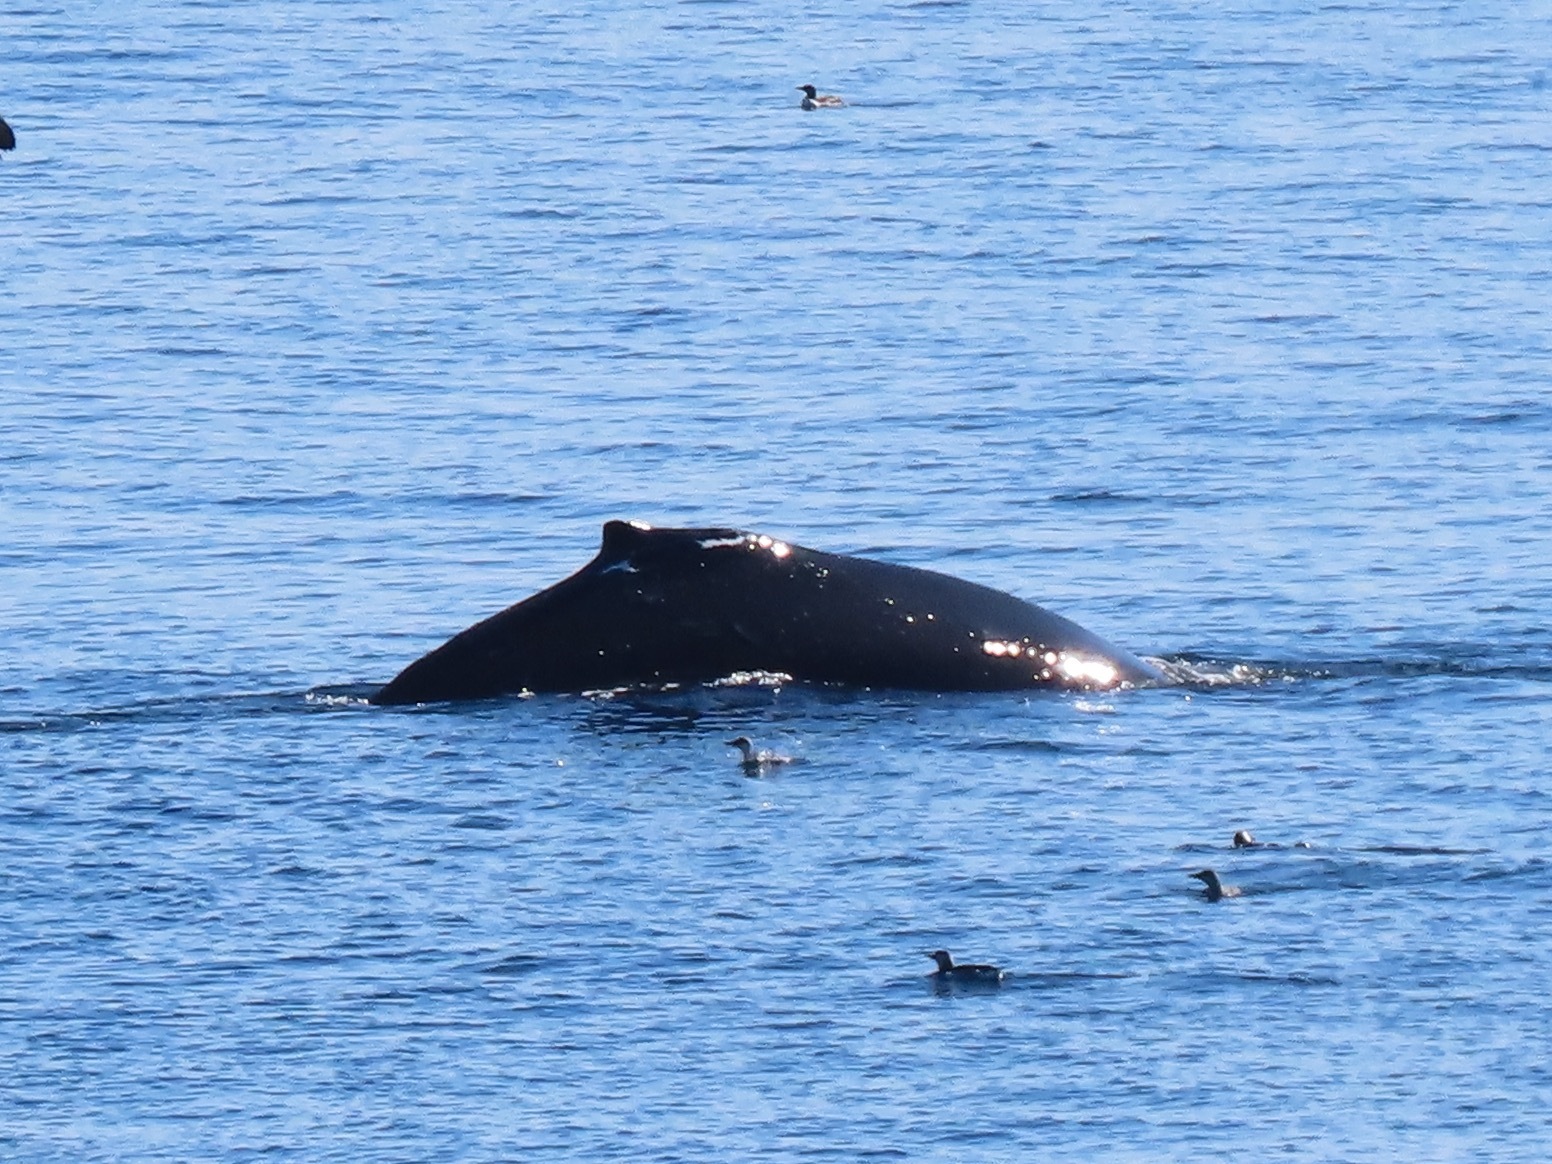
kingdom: Animalia
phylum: Chordata
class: Mammalia
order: Cetacea
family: Balaenopteridae
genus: Megaptera
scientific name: Megaptera novaeangliae
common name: Humpback whale
